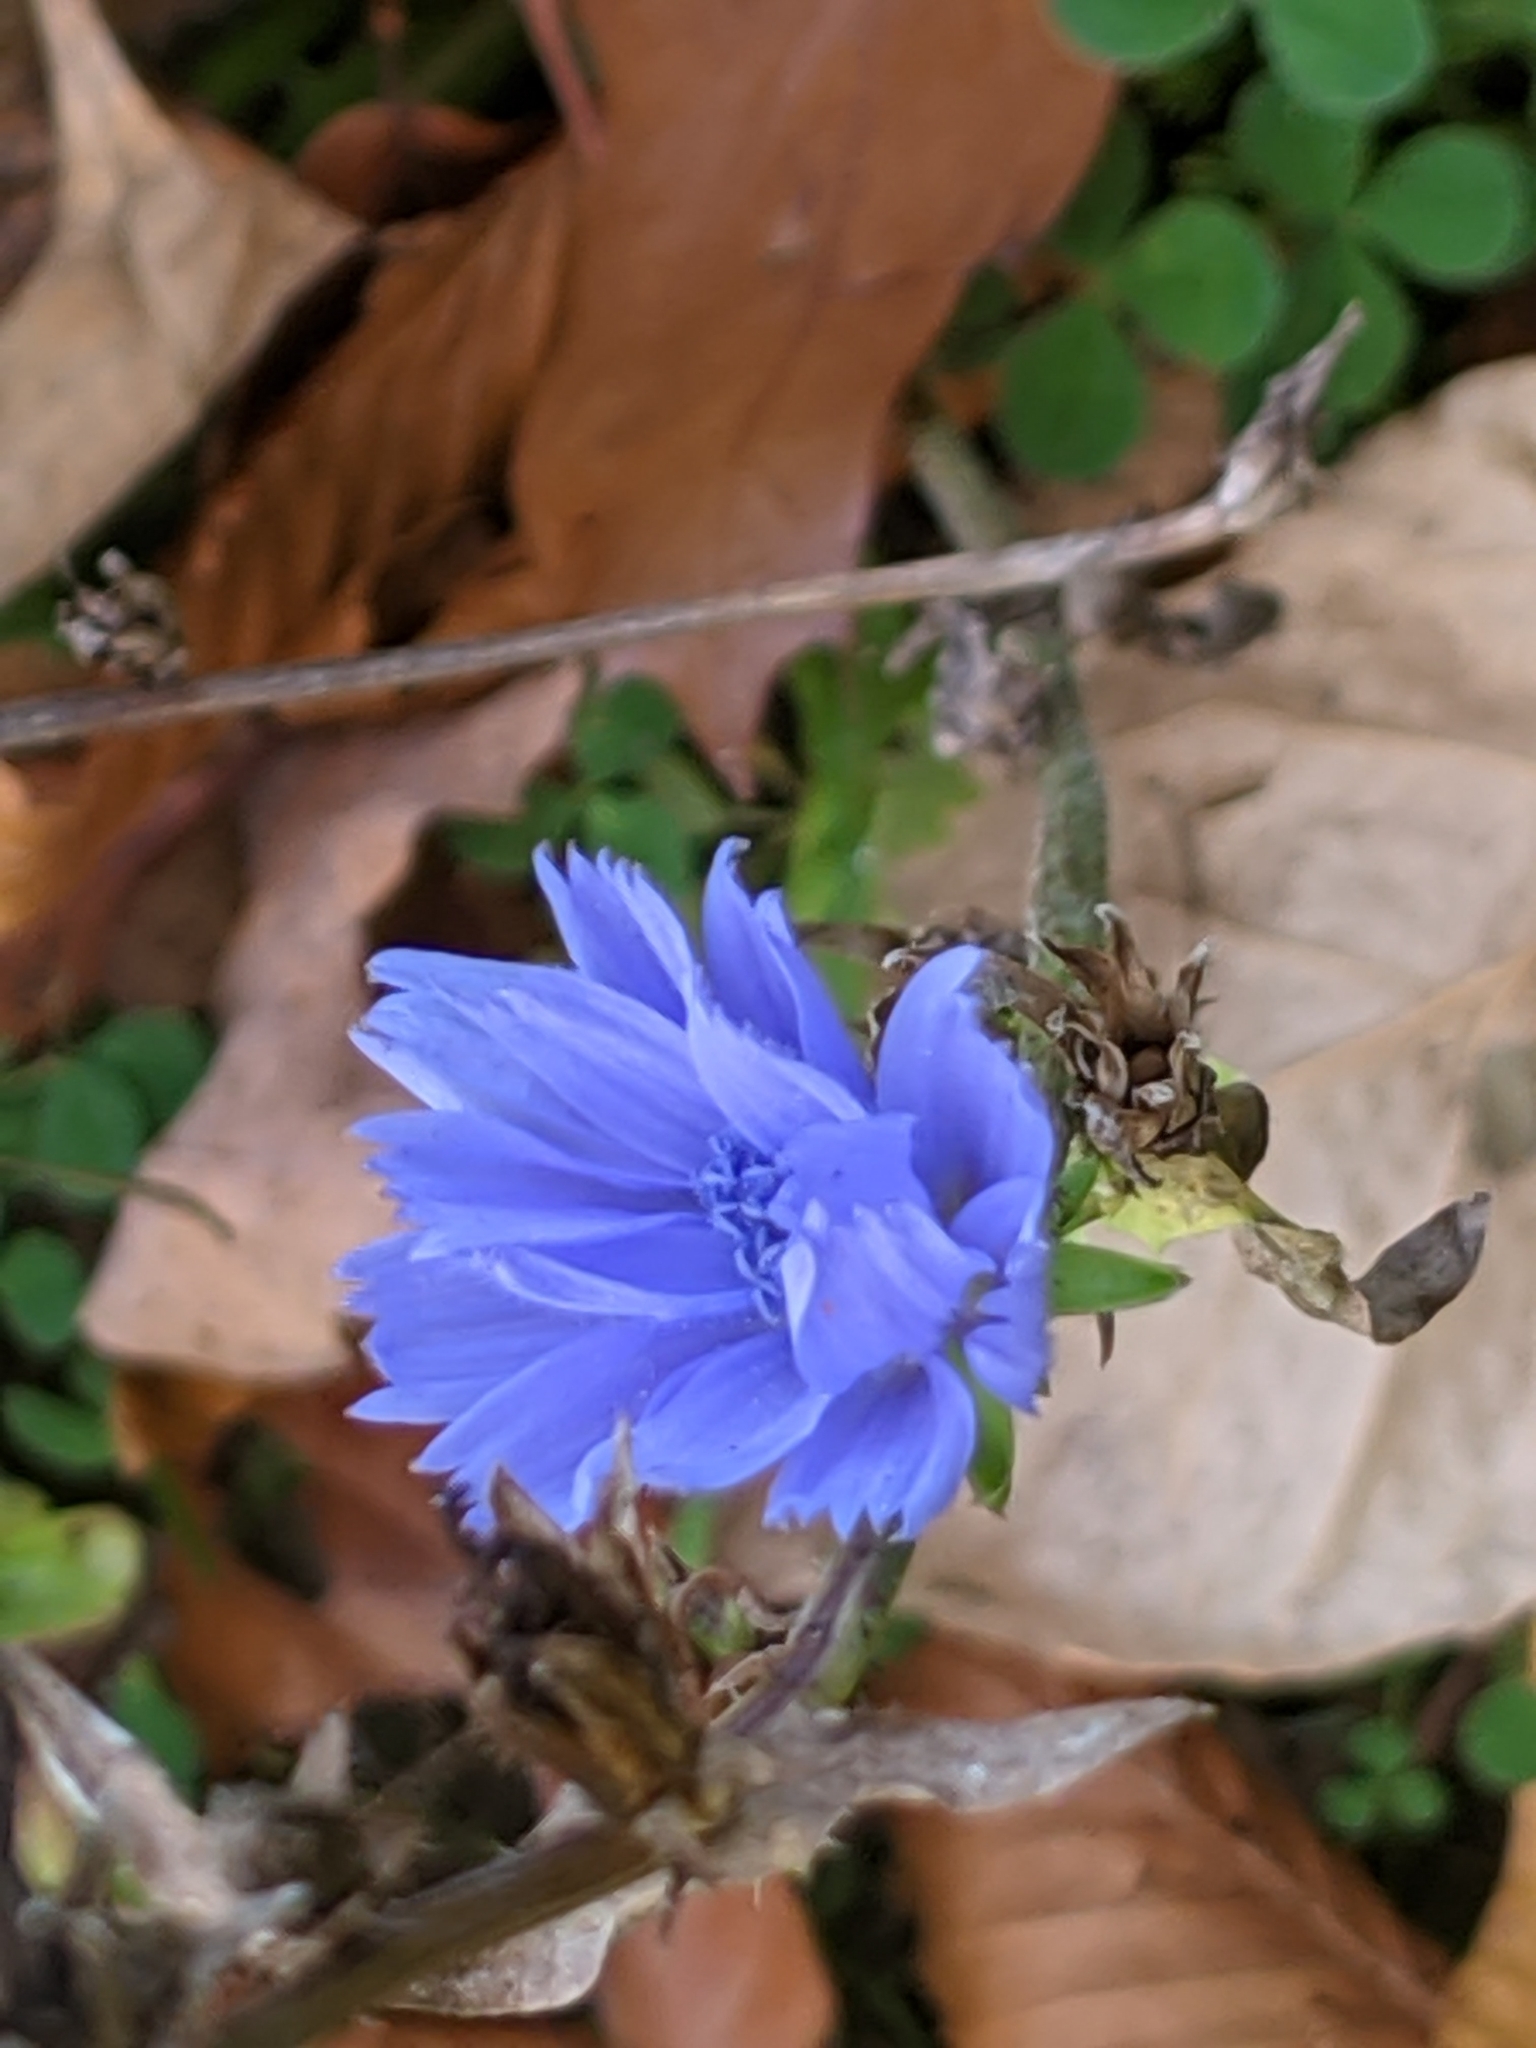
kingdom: Plantae
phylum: Tracheophyta
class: Magnoliopsida
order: Asterales
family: Asteraceae
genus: Cichorium
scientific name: Cichorium intybus
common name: Chicory
